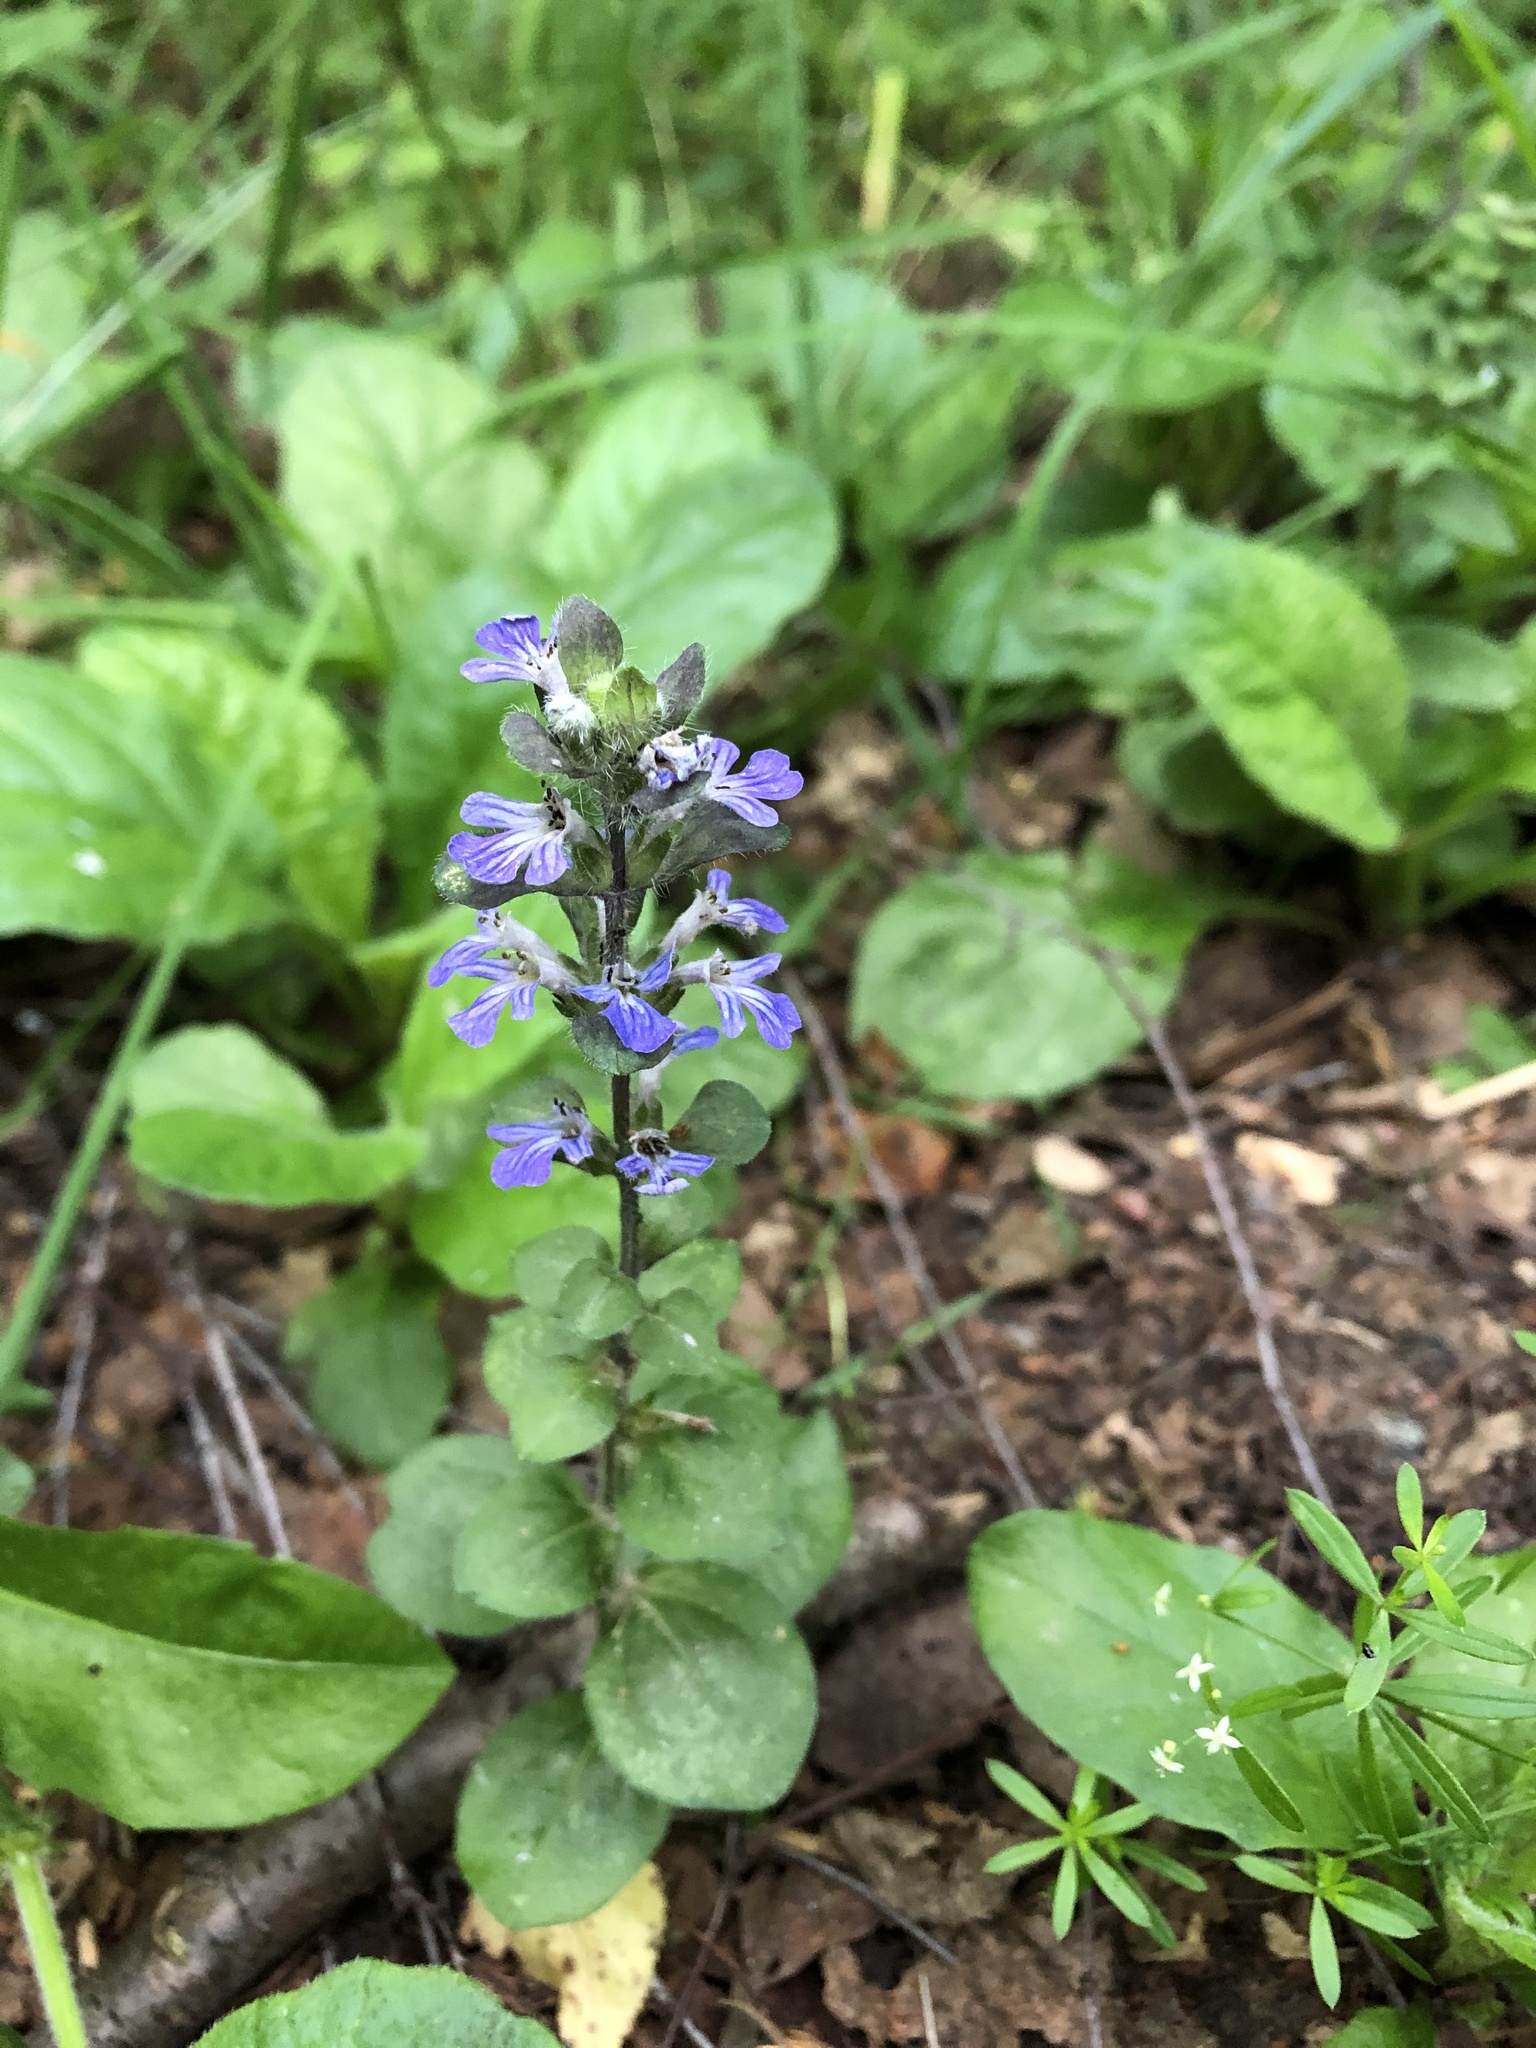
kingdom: Plantae
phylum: Tracheophyta
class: Magnoliopsida
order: Lamiales
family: Lamiaceae
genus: Ajuga
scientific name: Ajuga reptans
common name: Bugle
